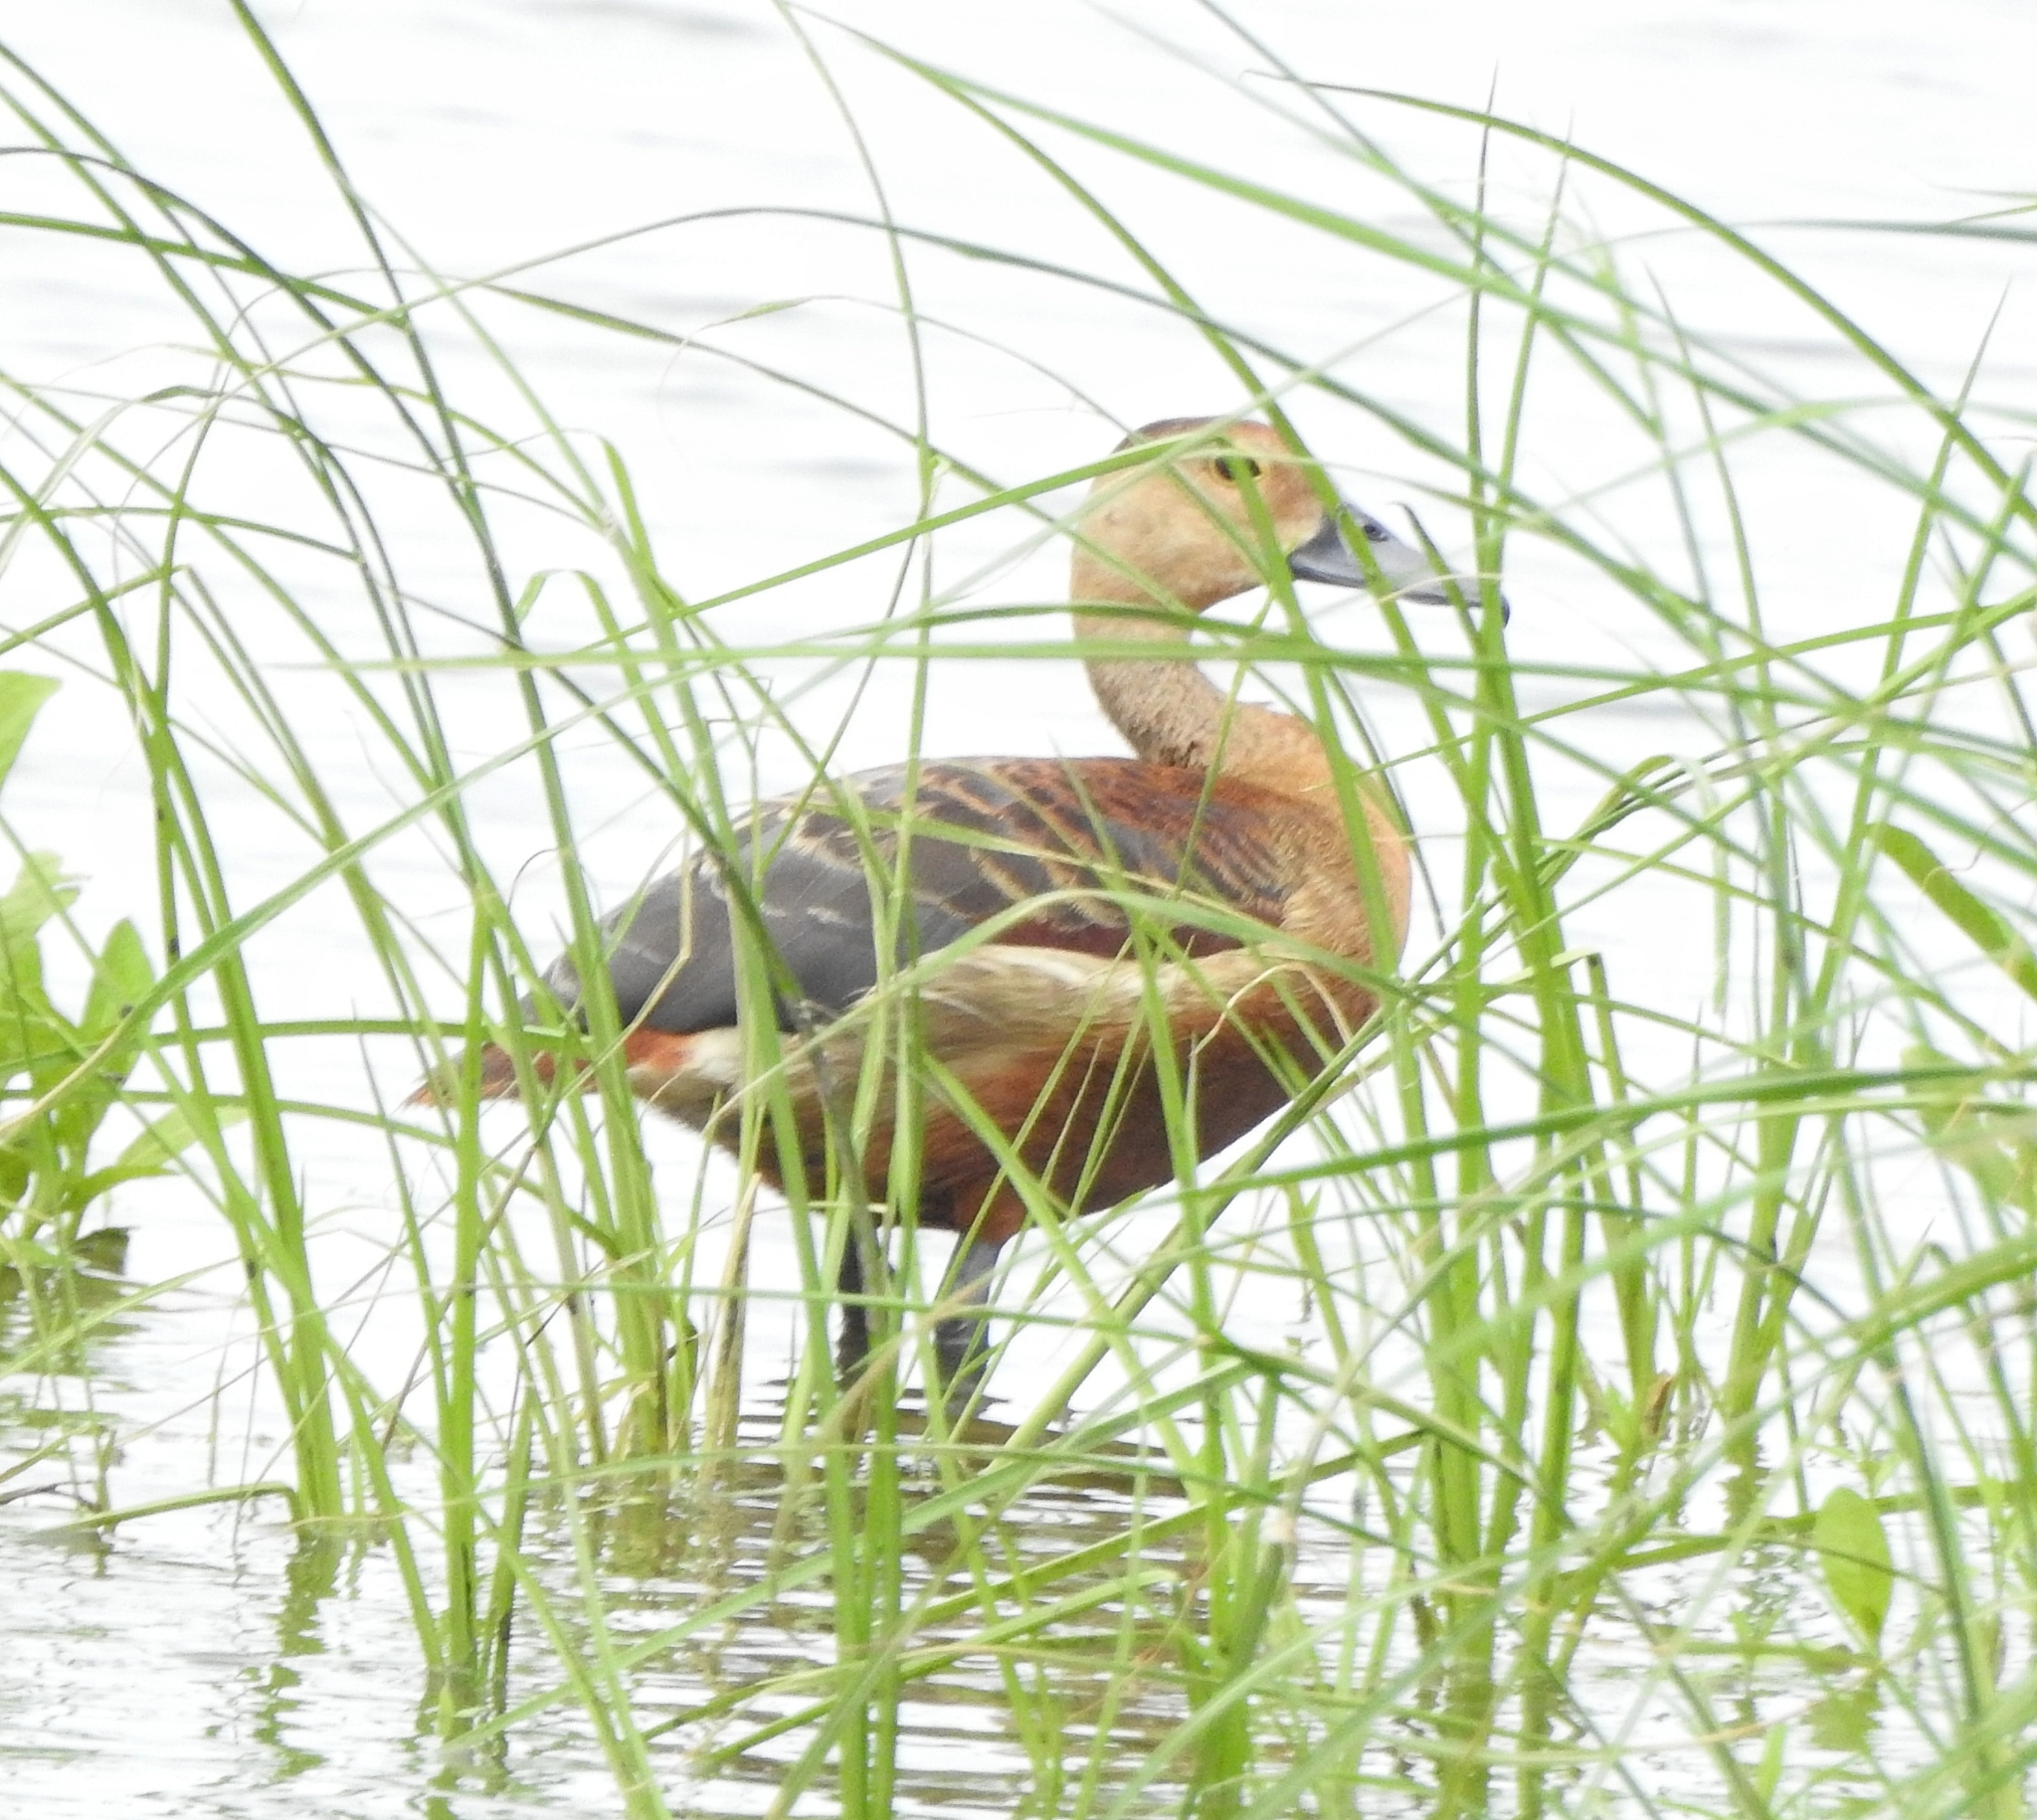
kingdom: Animalia
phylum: Chordata
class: Aves
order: Anseriformes
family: Anatidae
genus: Dendrocygna
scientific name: Dendrocygna javanica
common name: Lesser whistling-duck
